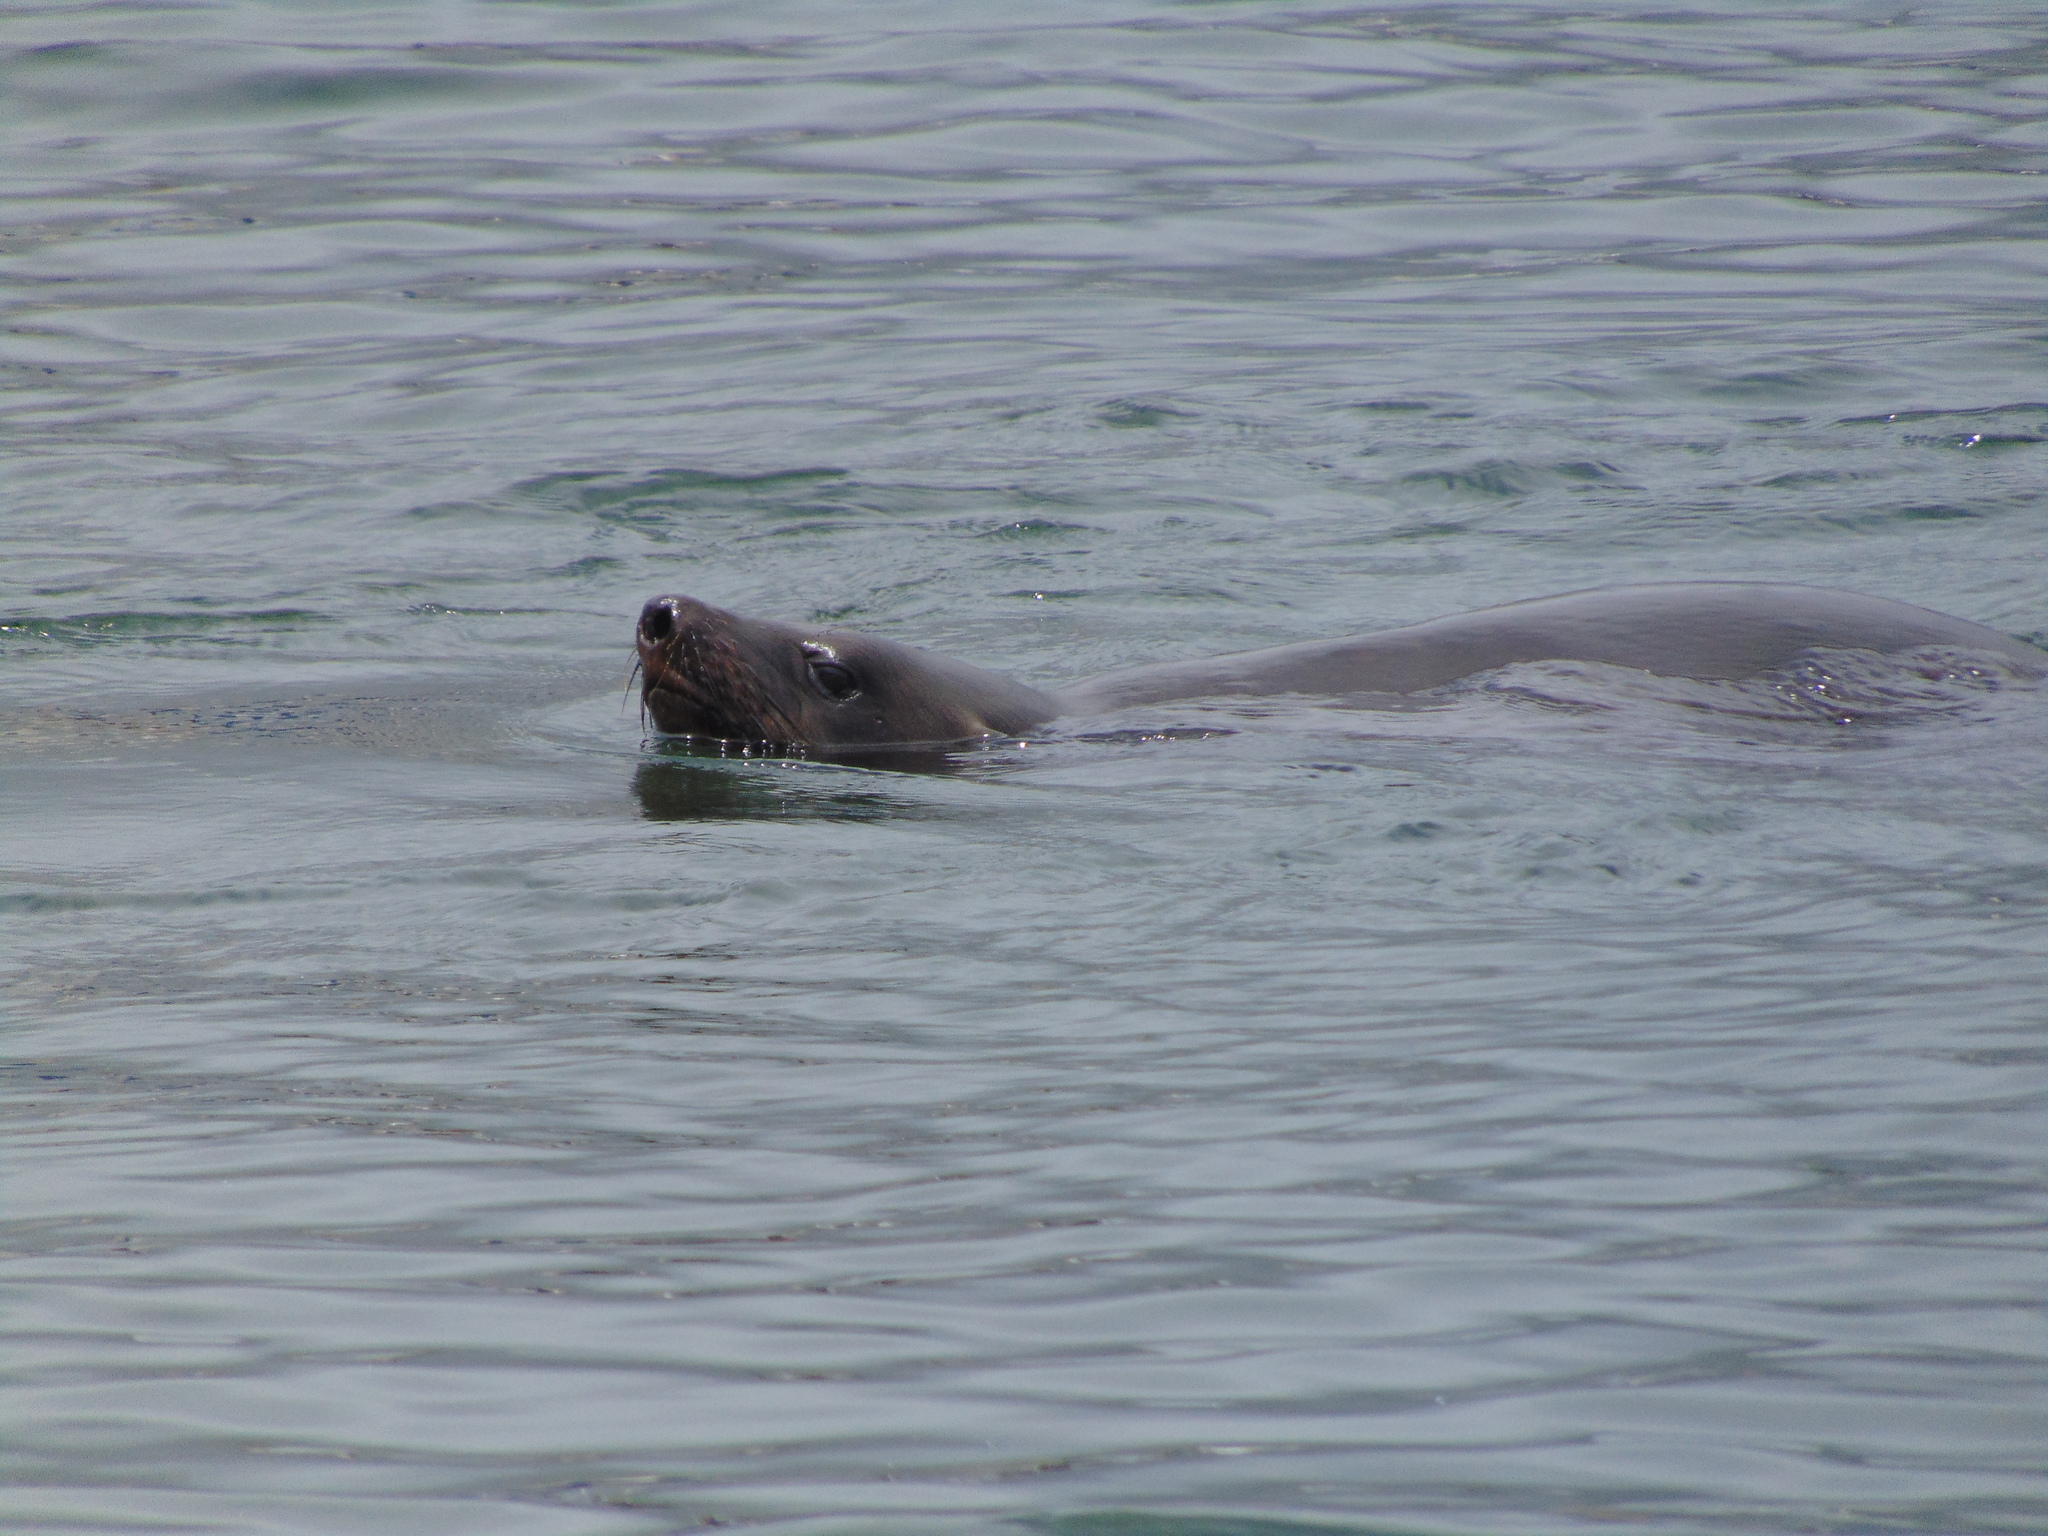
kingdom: Animalia
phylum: Chordata
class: Mammalia
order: Carnivora
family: Otariidae
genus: Arctocephalus
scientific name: Arctocephalus pusillus
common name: Brown fur seal
